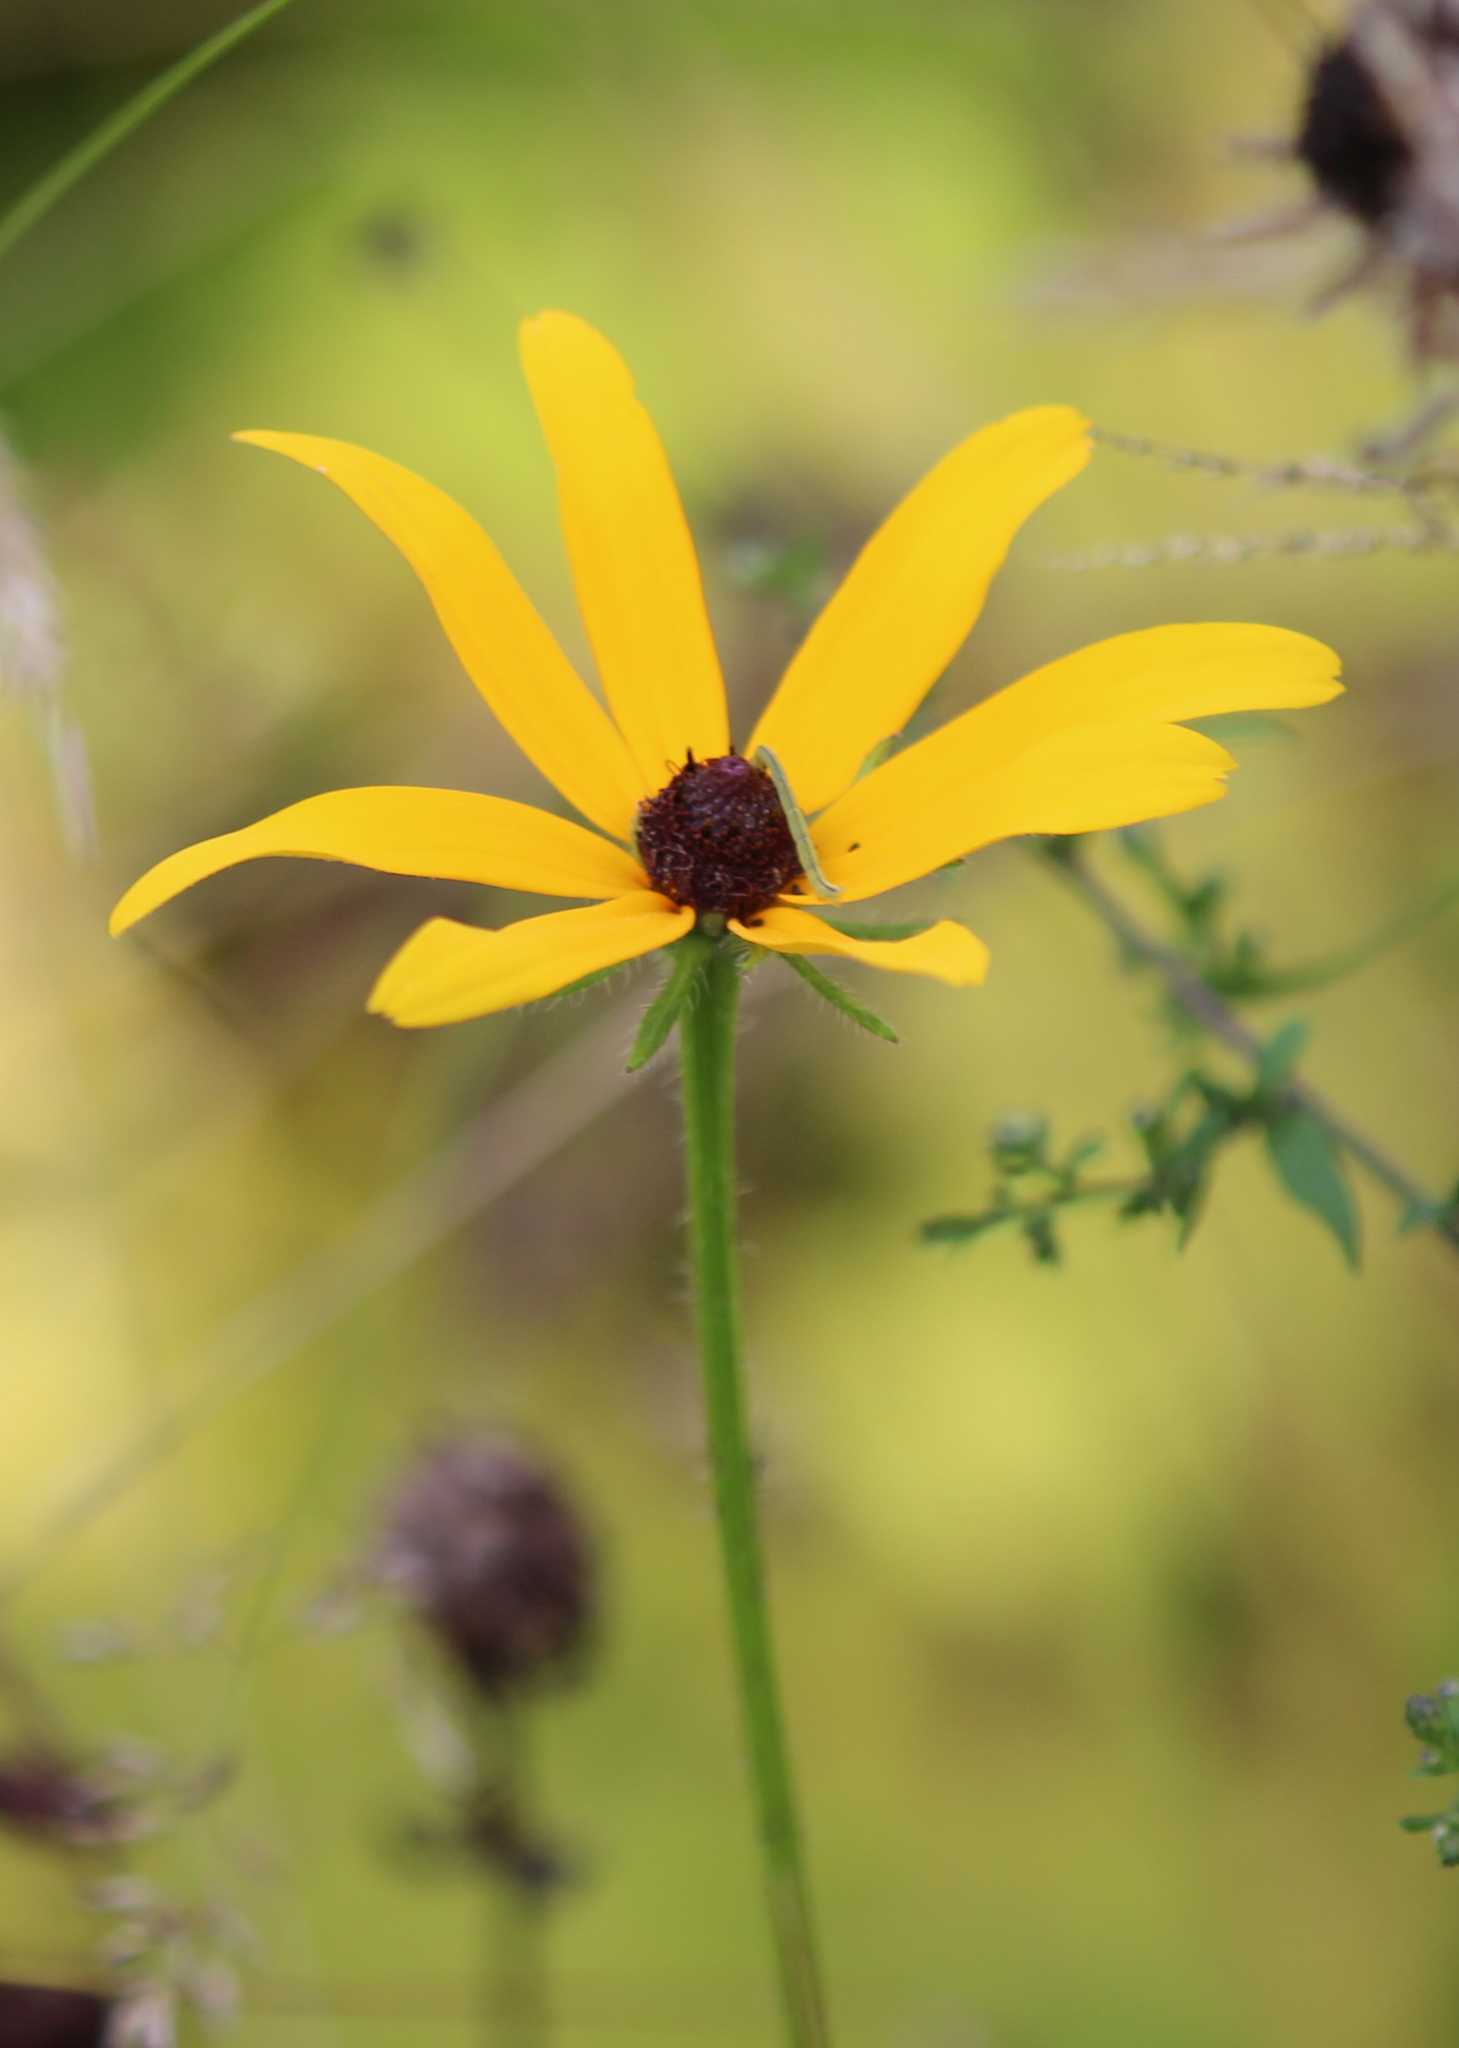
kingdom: Plantae
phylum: Tracheophyta
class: Magnoliopsida
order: Asterales
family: Asteraceae
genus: Rudbeckia
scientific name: Rudbeckia hirta
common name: Black-eyed-susan
